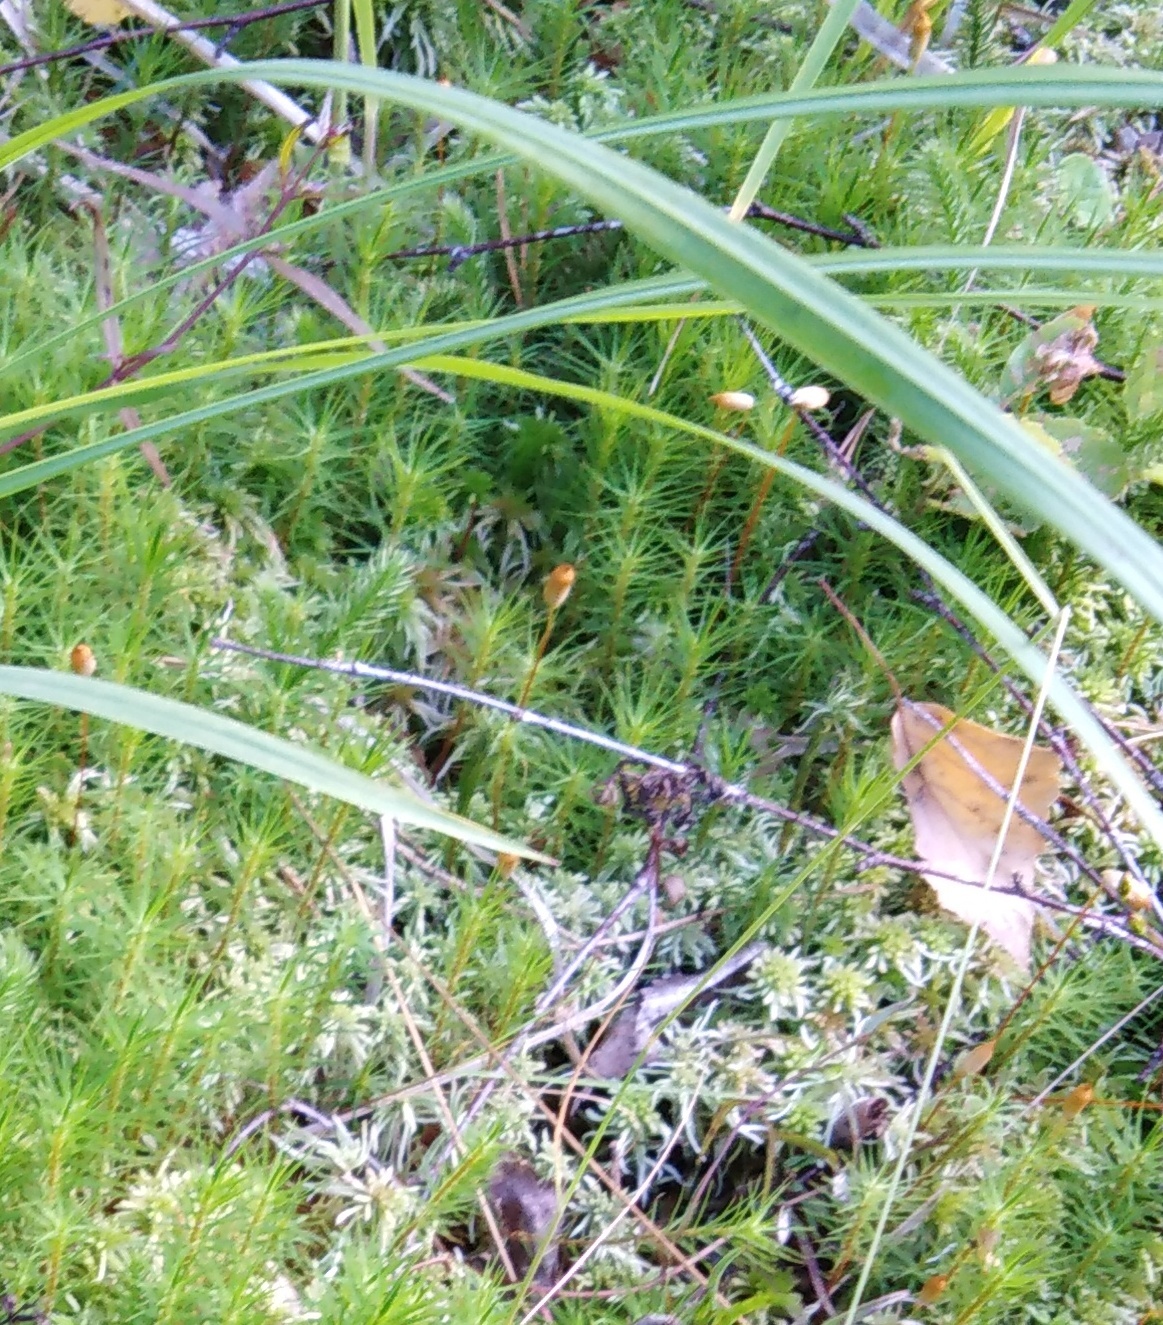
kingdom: Plantae
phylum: Bryophyta
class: Polytrichopsida
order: Polytrichales
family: Polytrichaceae
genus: Polytrichum
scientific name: Polytrichum commune
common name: Common haircap
